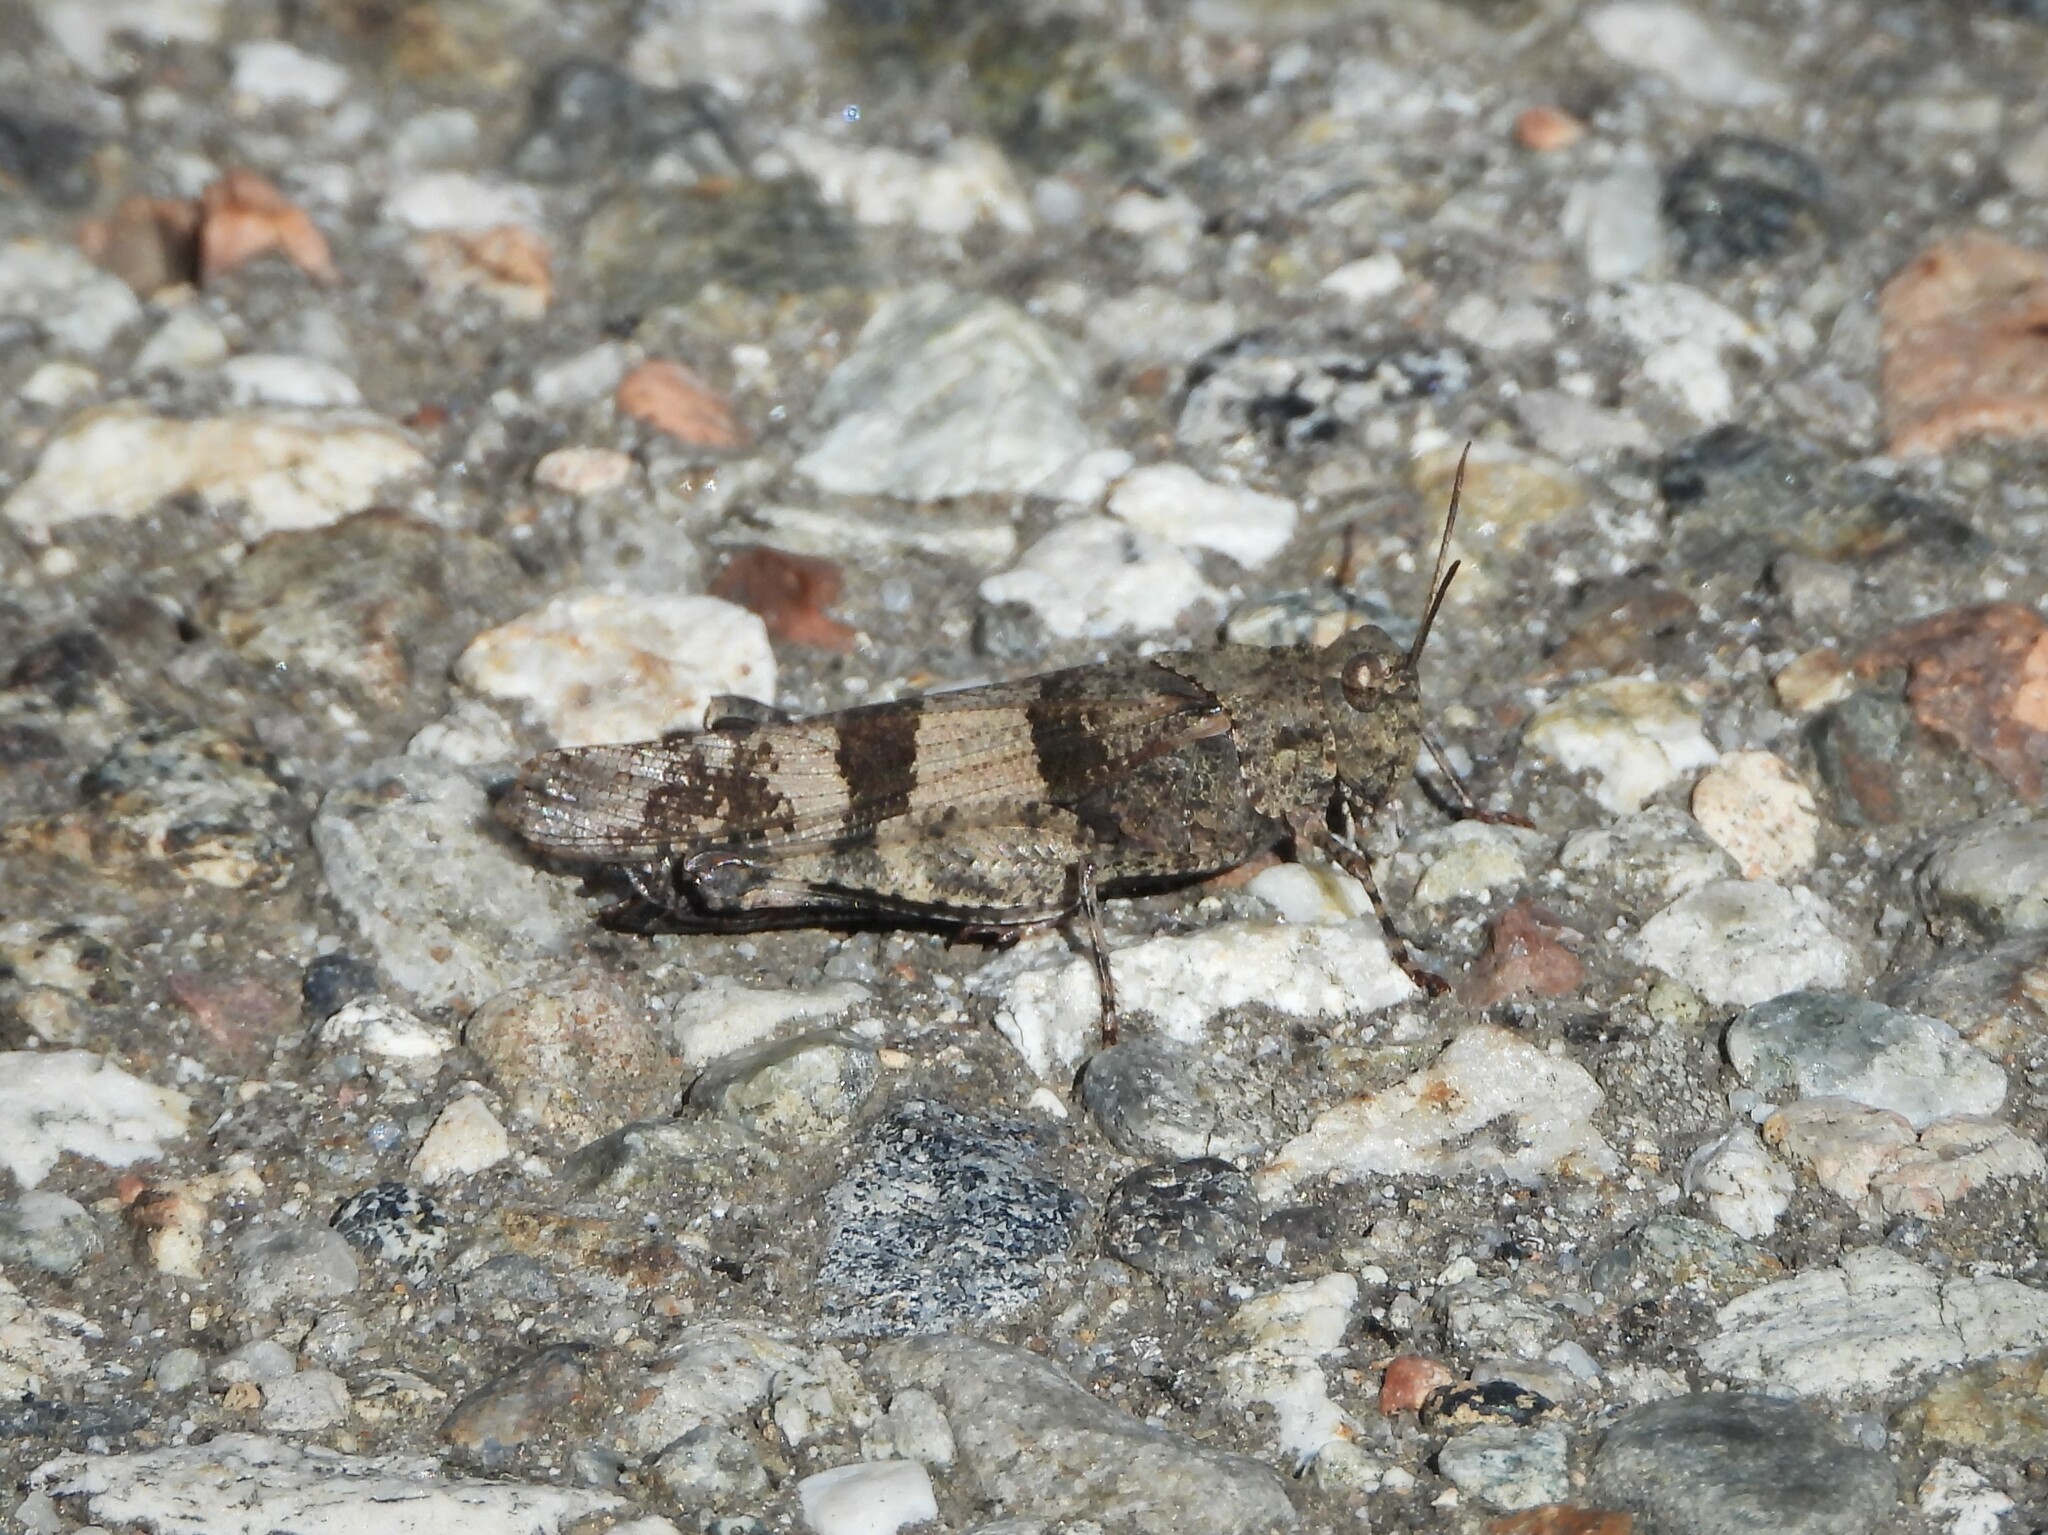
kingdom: Animalia
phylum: Arthropoda
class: Insecta
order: Orthoptera
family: Acrididae
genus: Oedipoda
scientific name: Oedipoda caerulescens
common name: Blue-winged grasshopper
